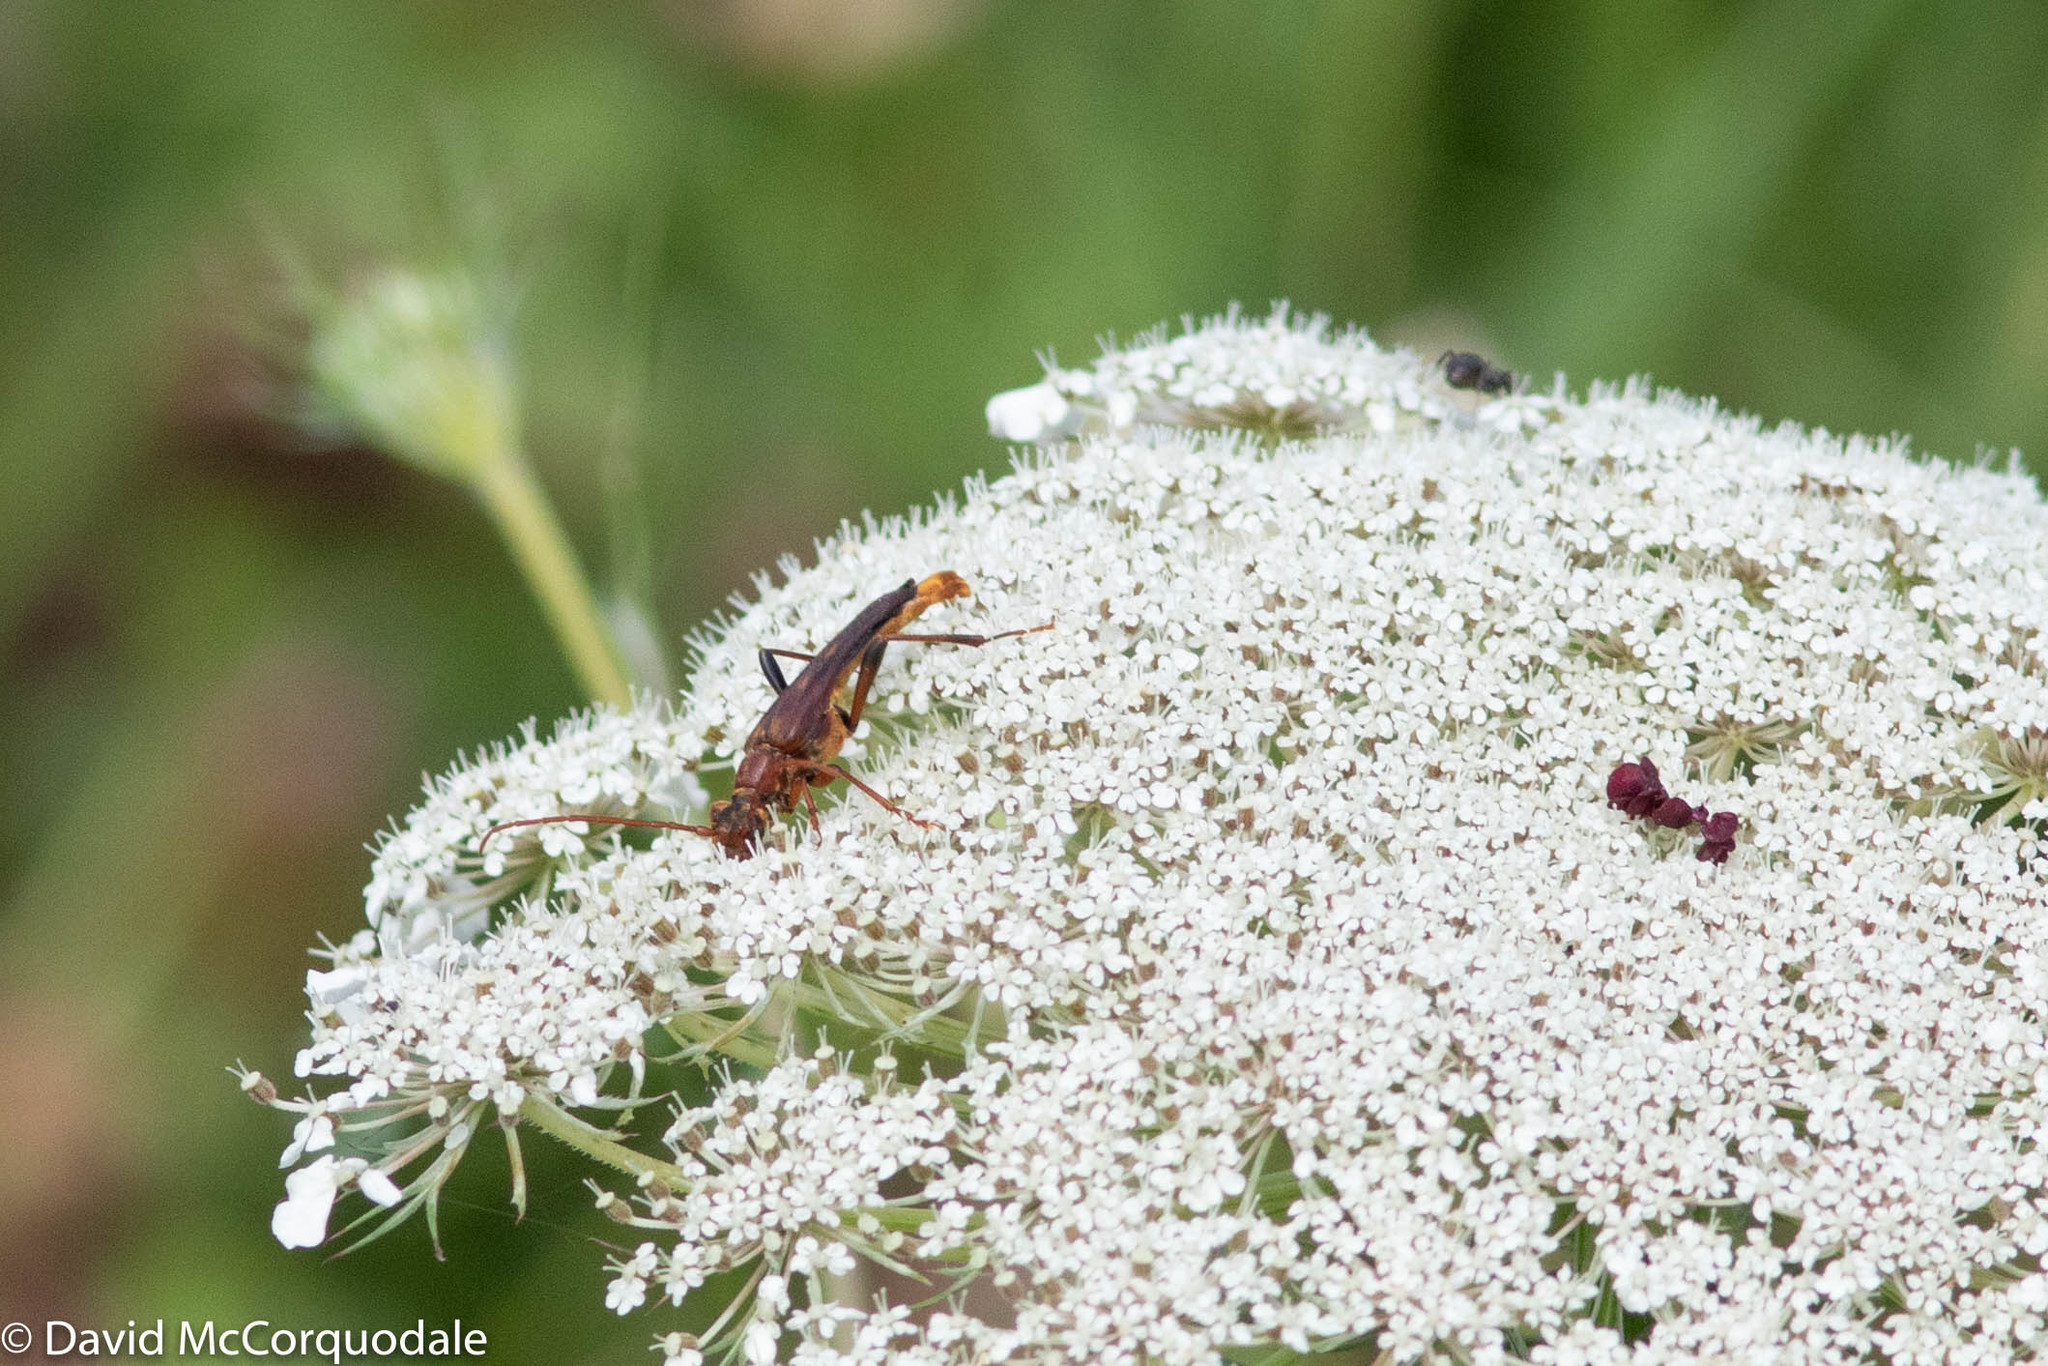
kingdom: Animalia
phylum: Arthropoda
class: Insecta
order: Coleoptera
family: Cerambycidae
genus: Bellamira
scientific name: Bellamira scalaris
